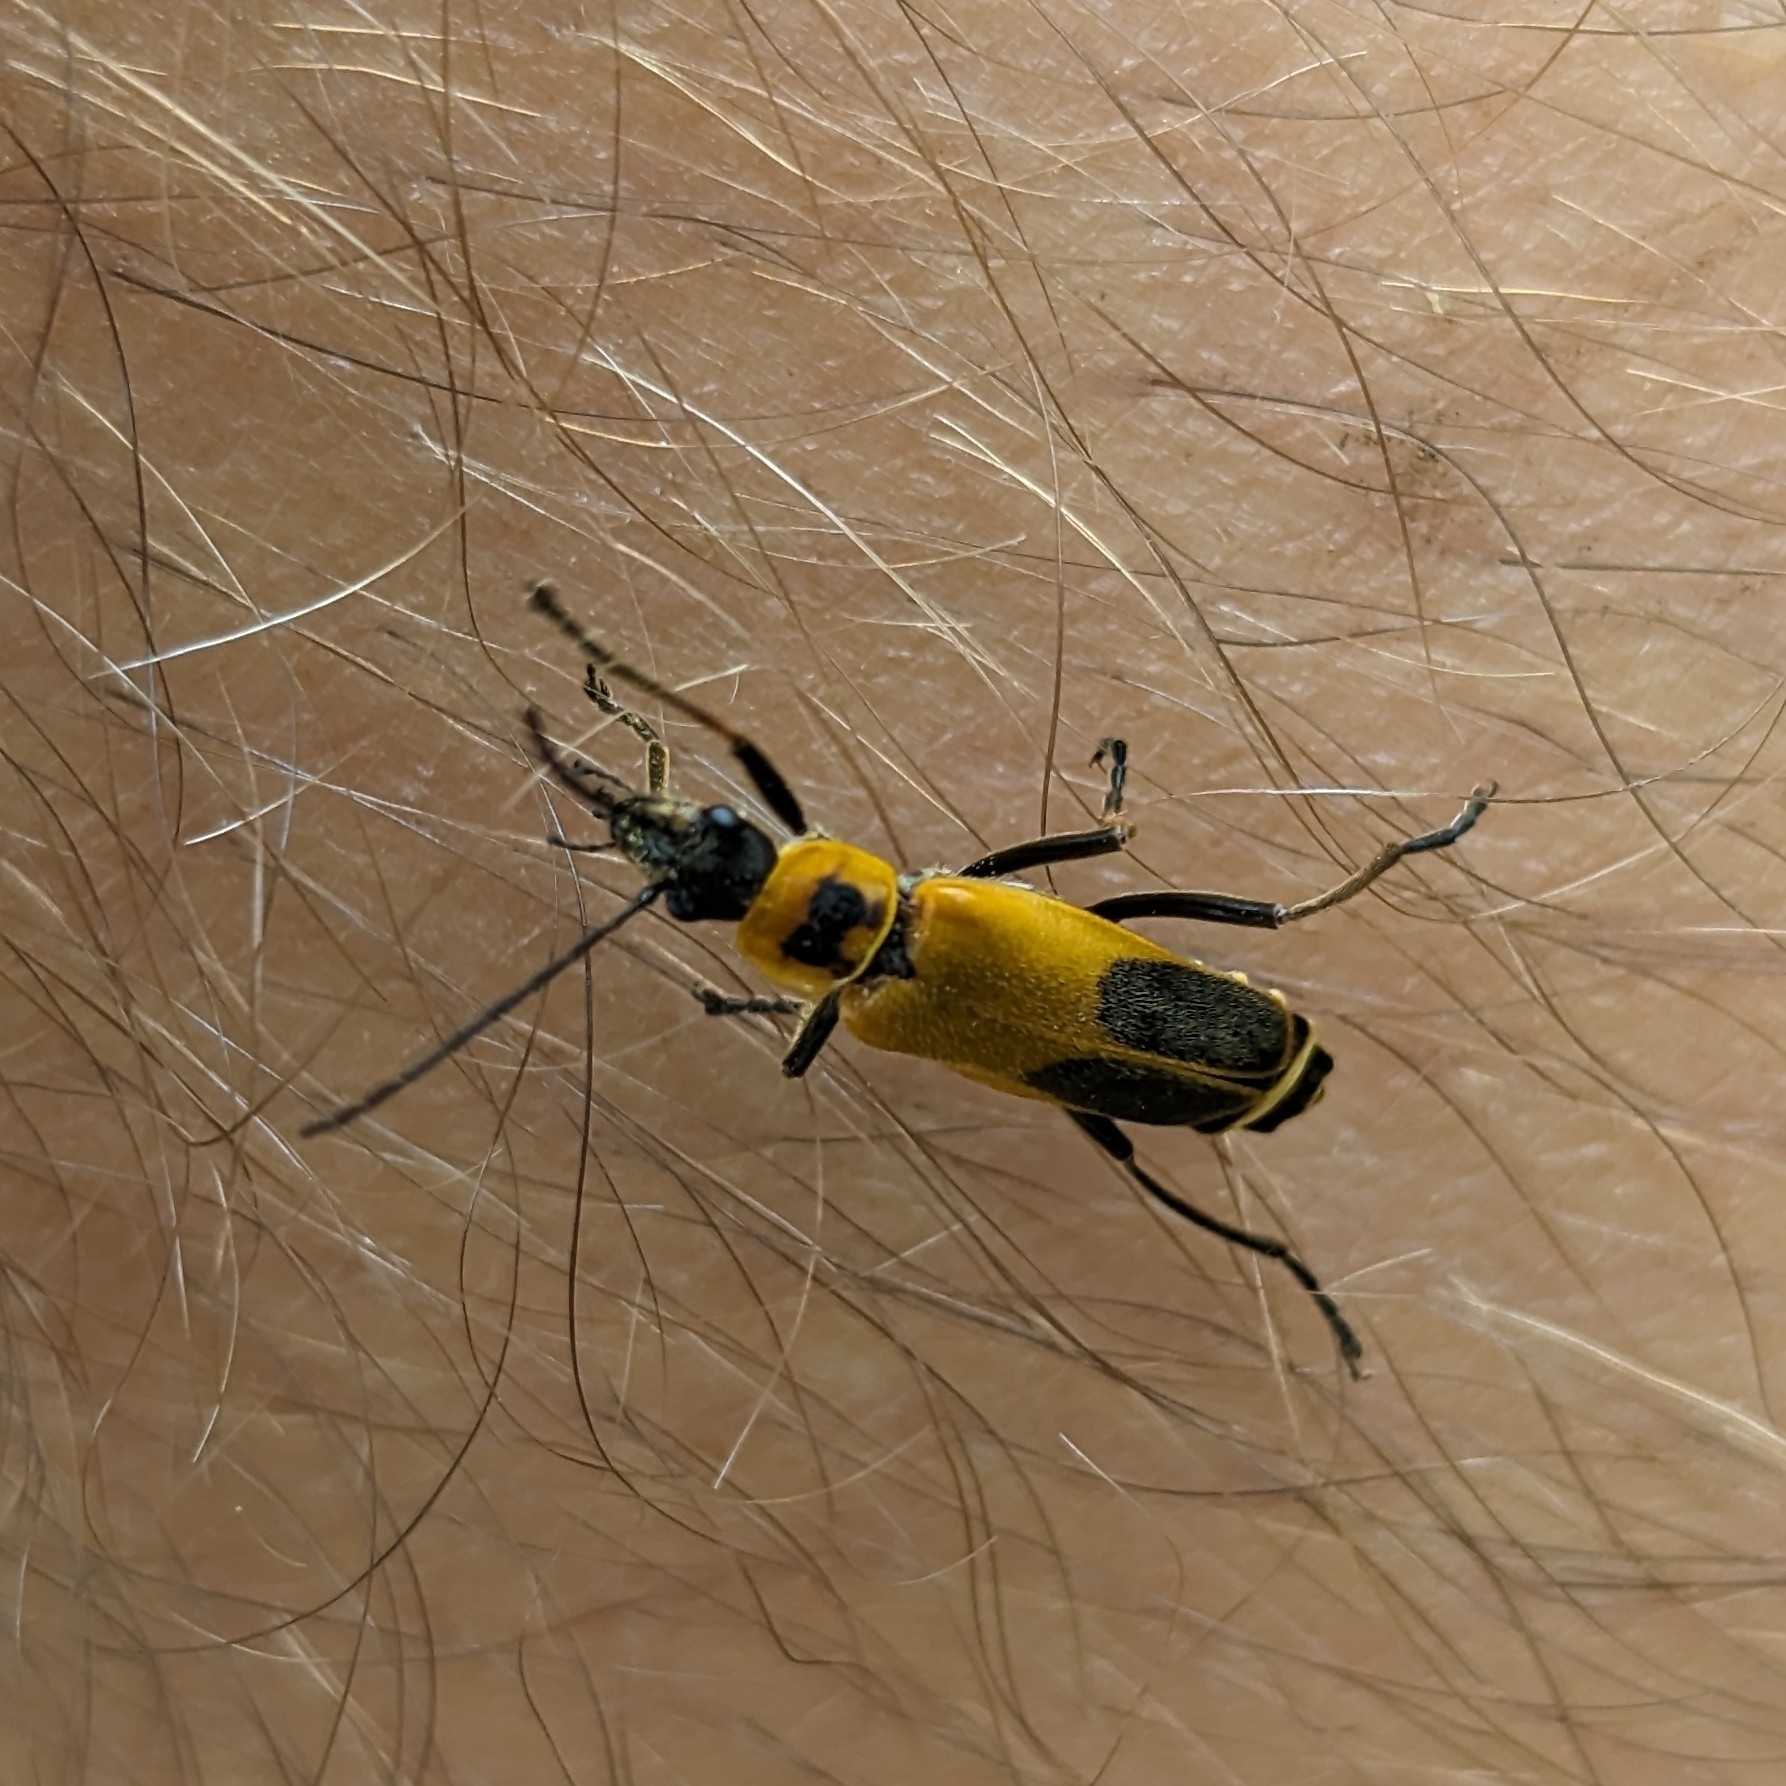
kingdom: Animalia
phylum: Arthropoda
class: Insecta
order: Coleoptera
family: Cantharidae
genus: Chauliognathus
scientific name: Chauliognathus pensylvanicus
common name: Goldenrod soldier beetle
